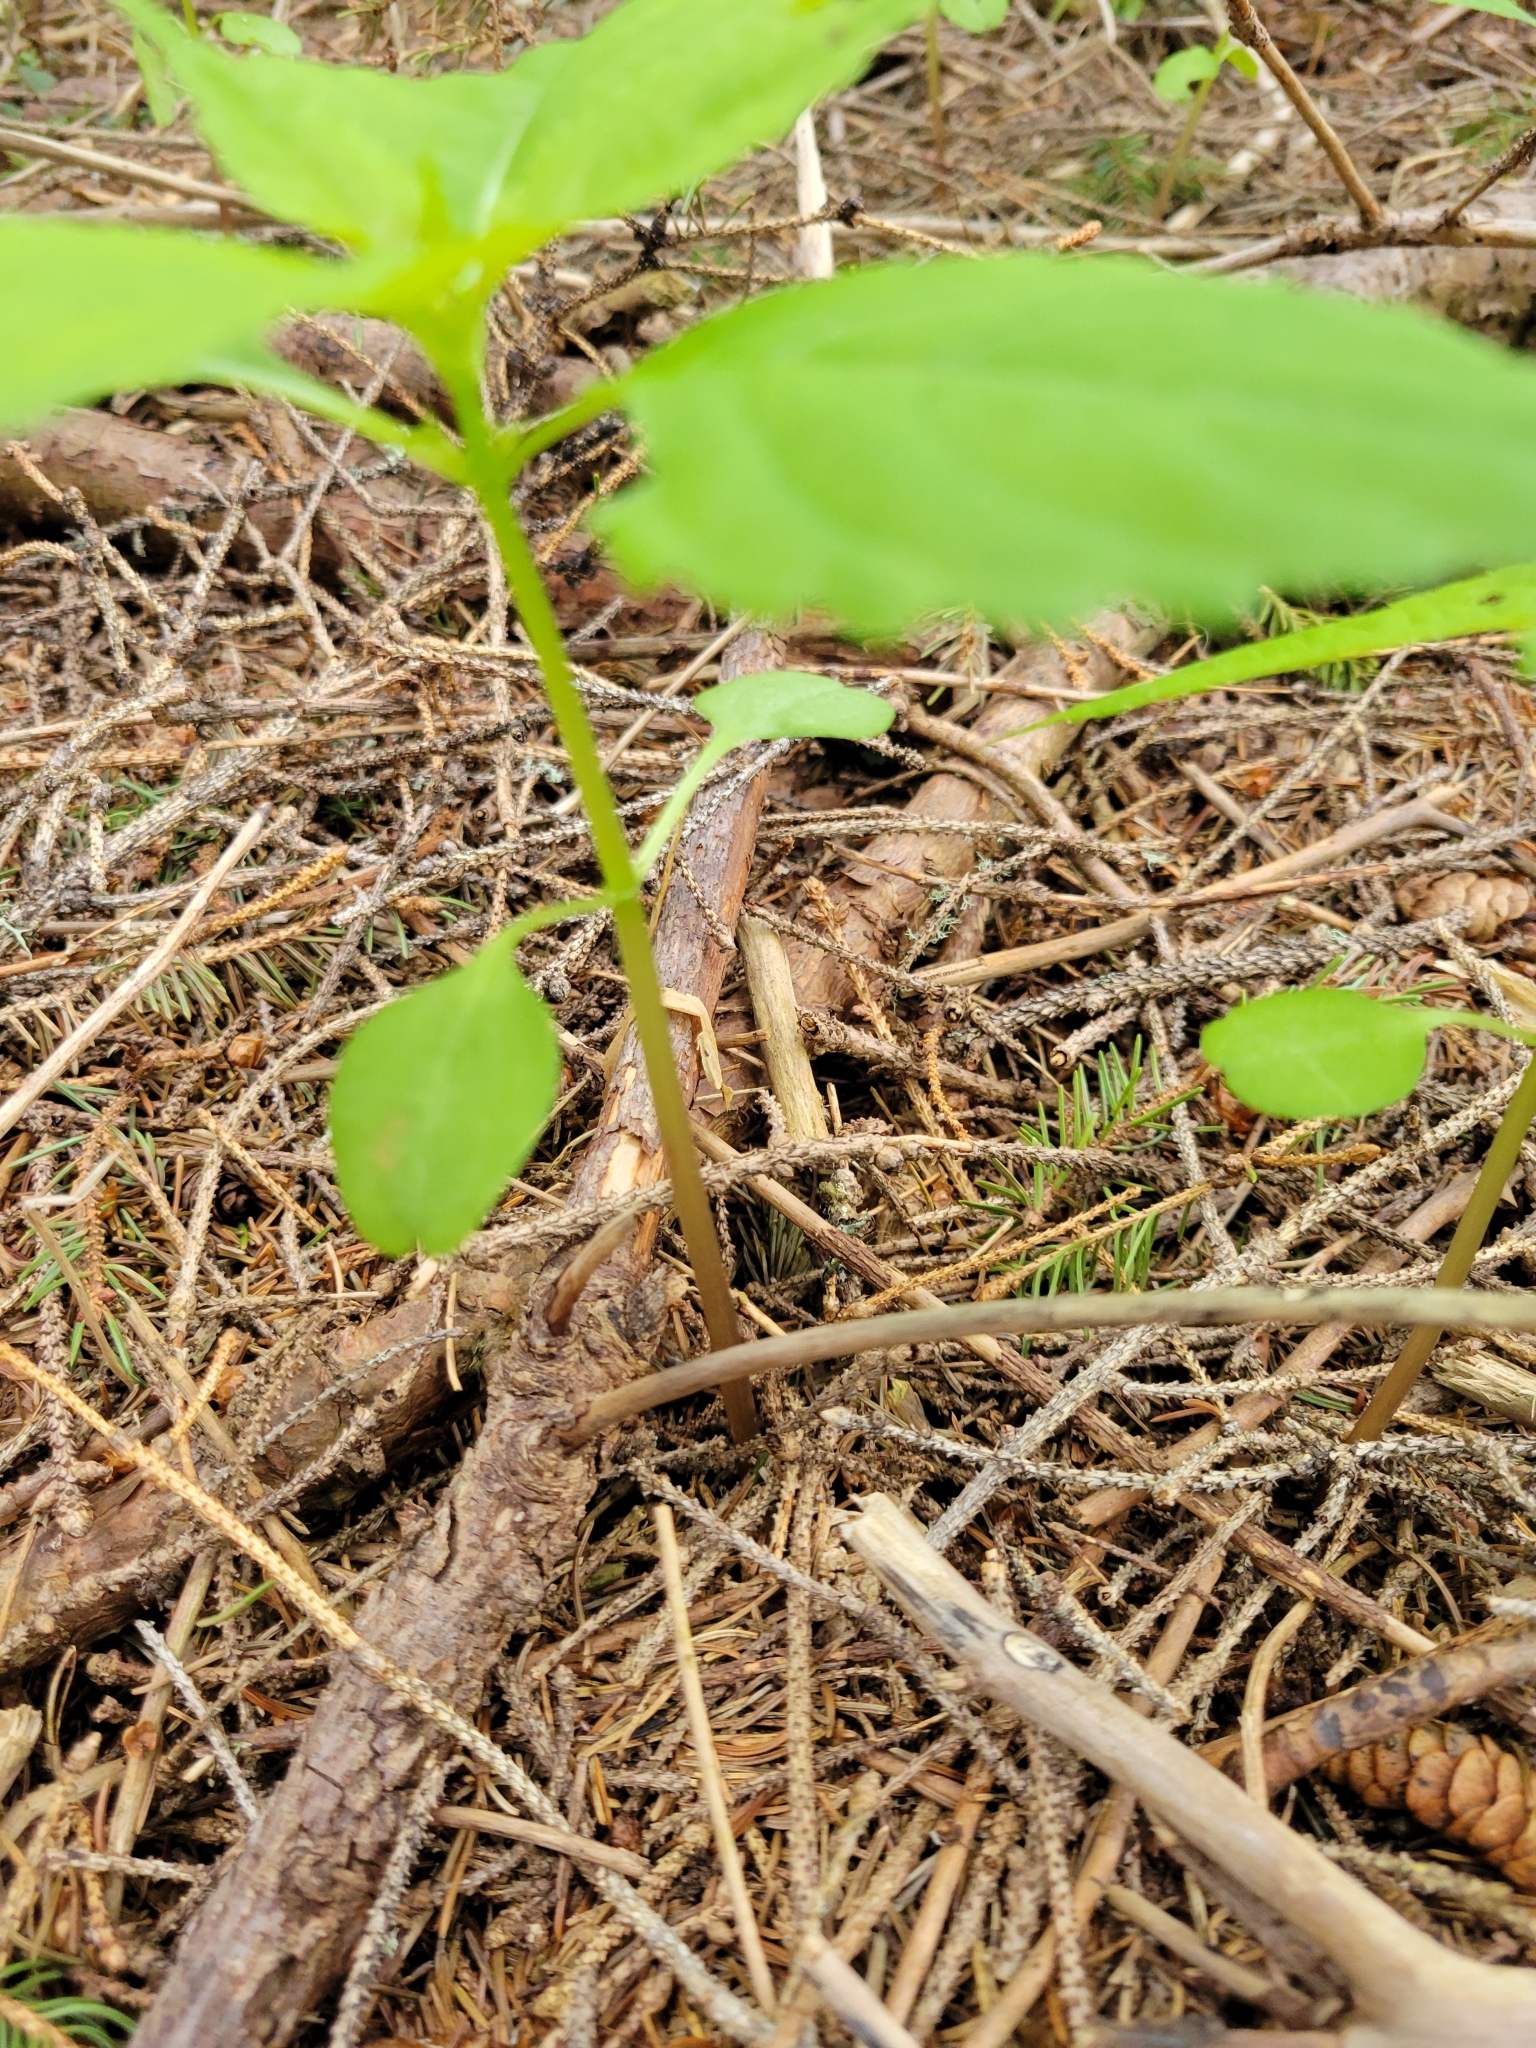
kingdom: Plantae
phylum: Tracheophyta
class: Magnoliopsida
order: Ericales
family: Balsaminaceae
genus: Impatiens
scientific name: Impatiens parviflora
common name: Small balsam
